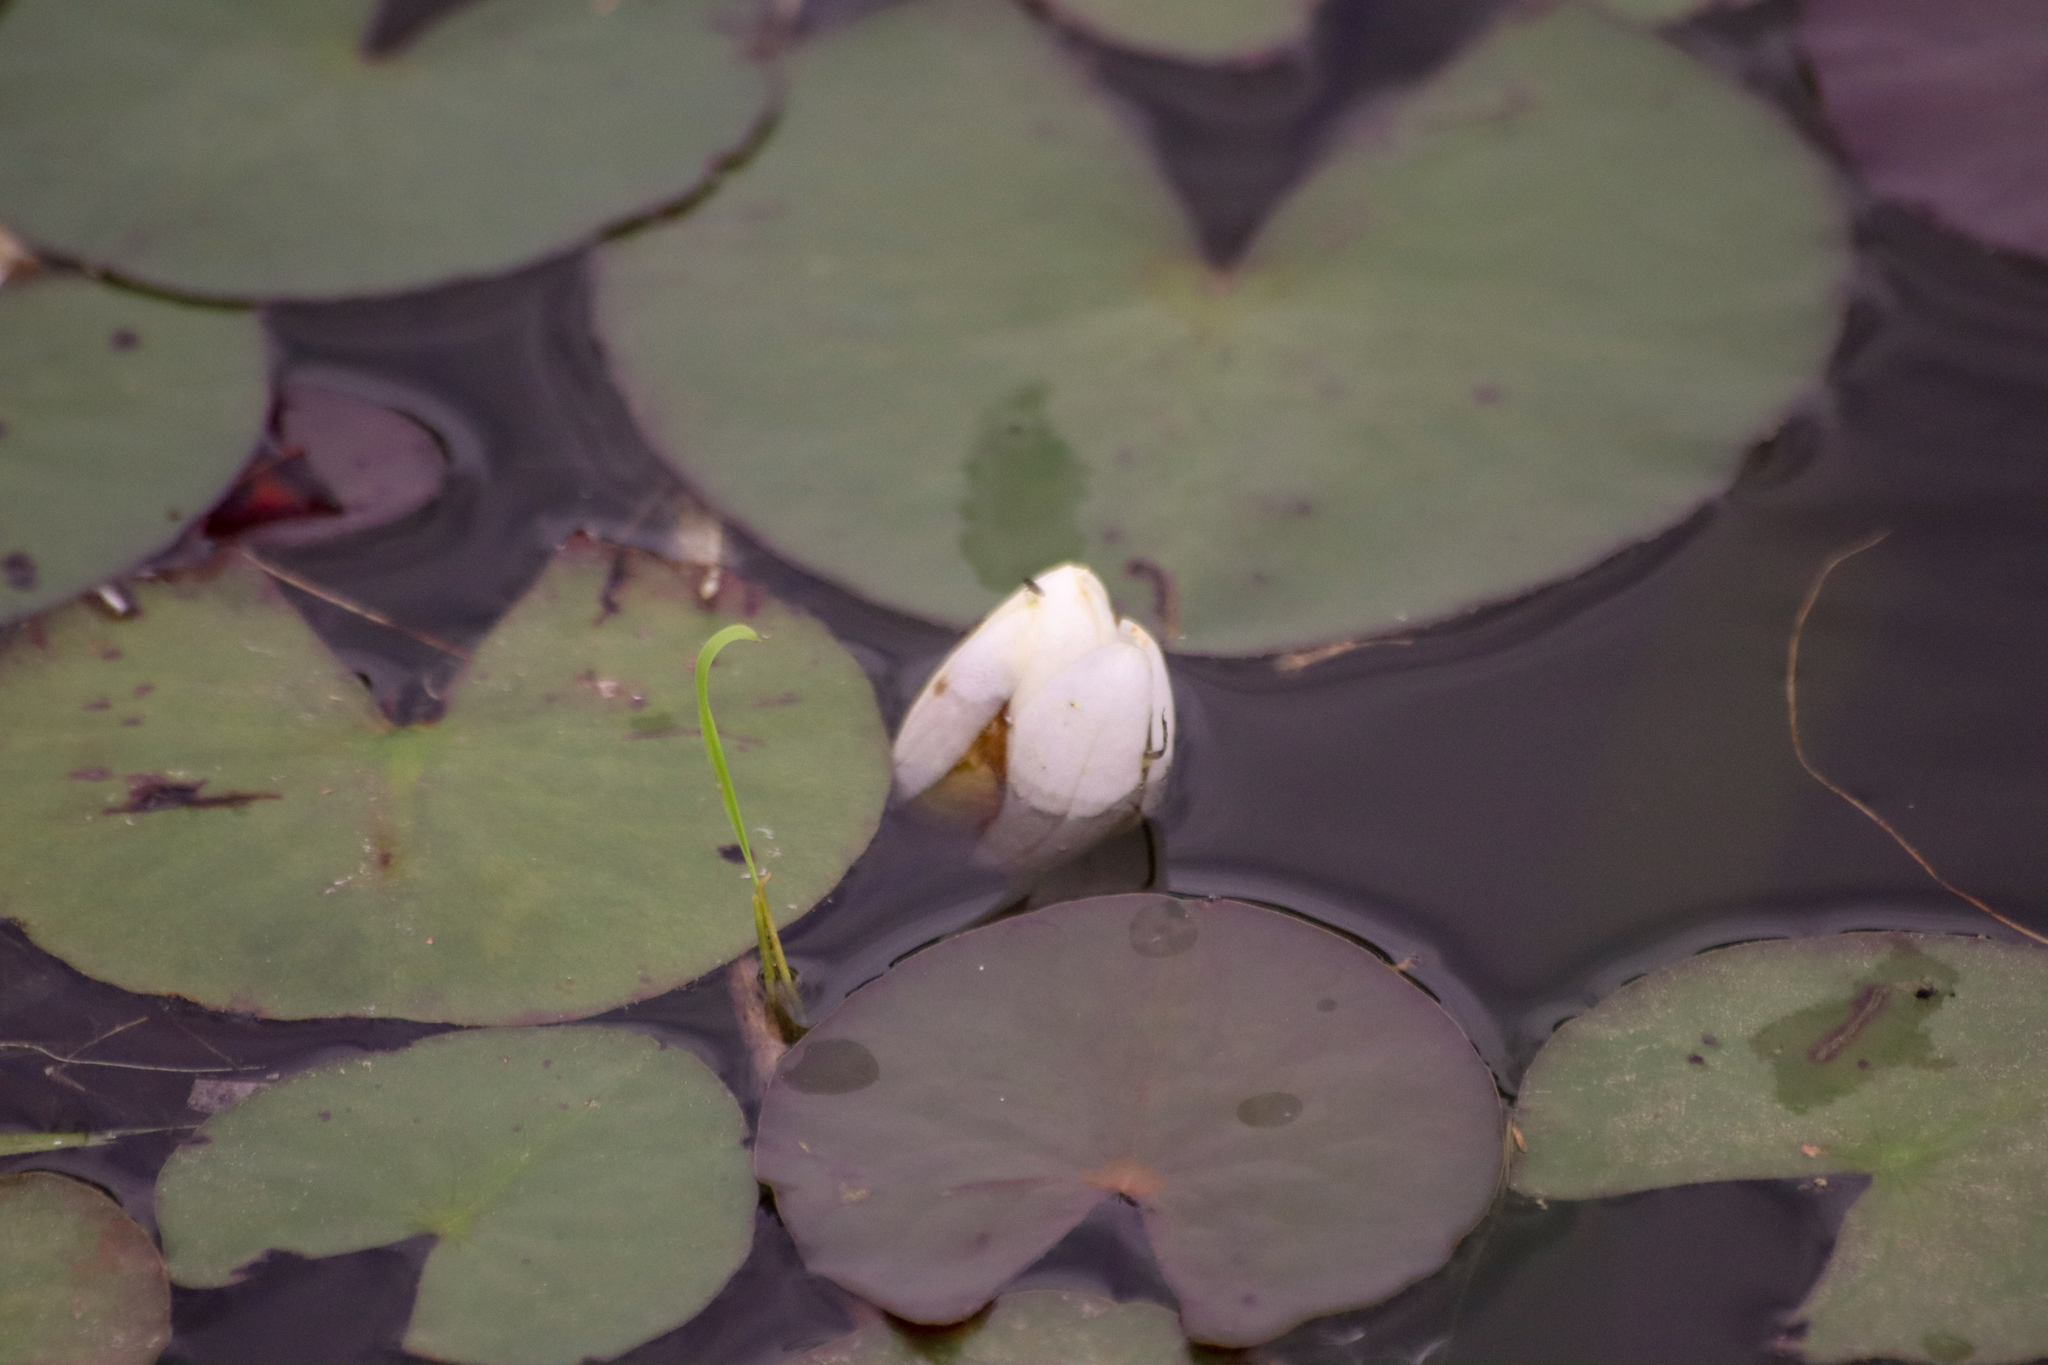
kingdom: Plantae
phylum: Tracheophyta
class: Magnoliopsida
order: Nymphaeales
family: Nymphaeaceae
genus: Nymphaea
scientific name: Nymphaea odorata
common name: Fragrant water-lily
